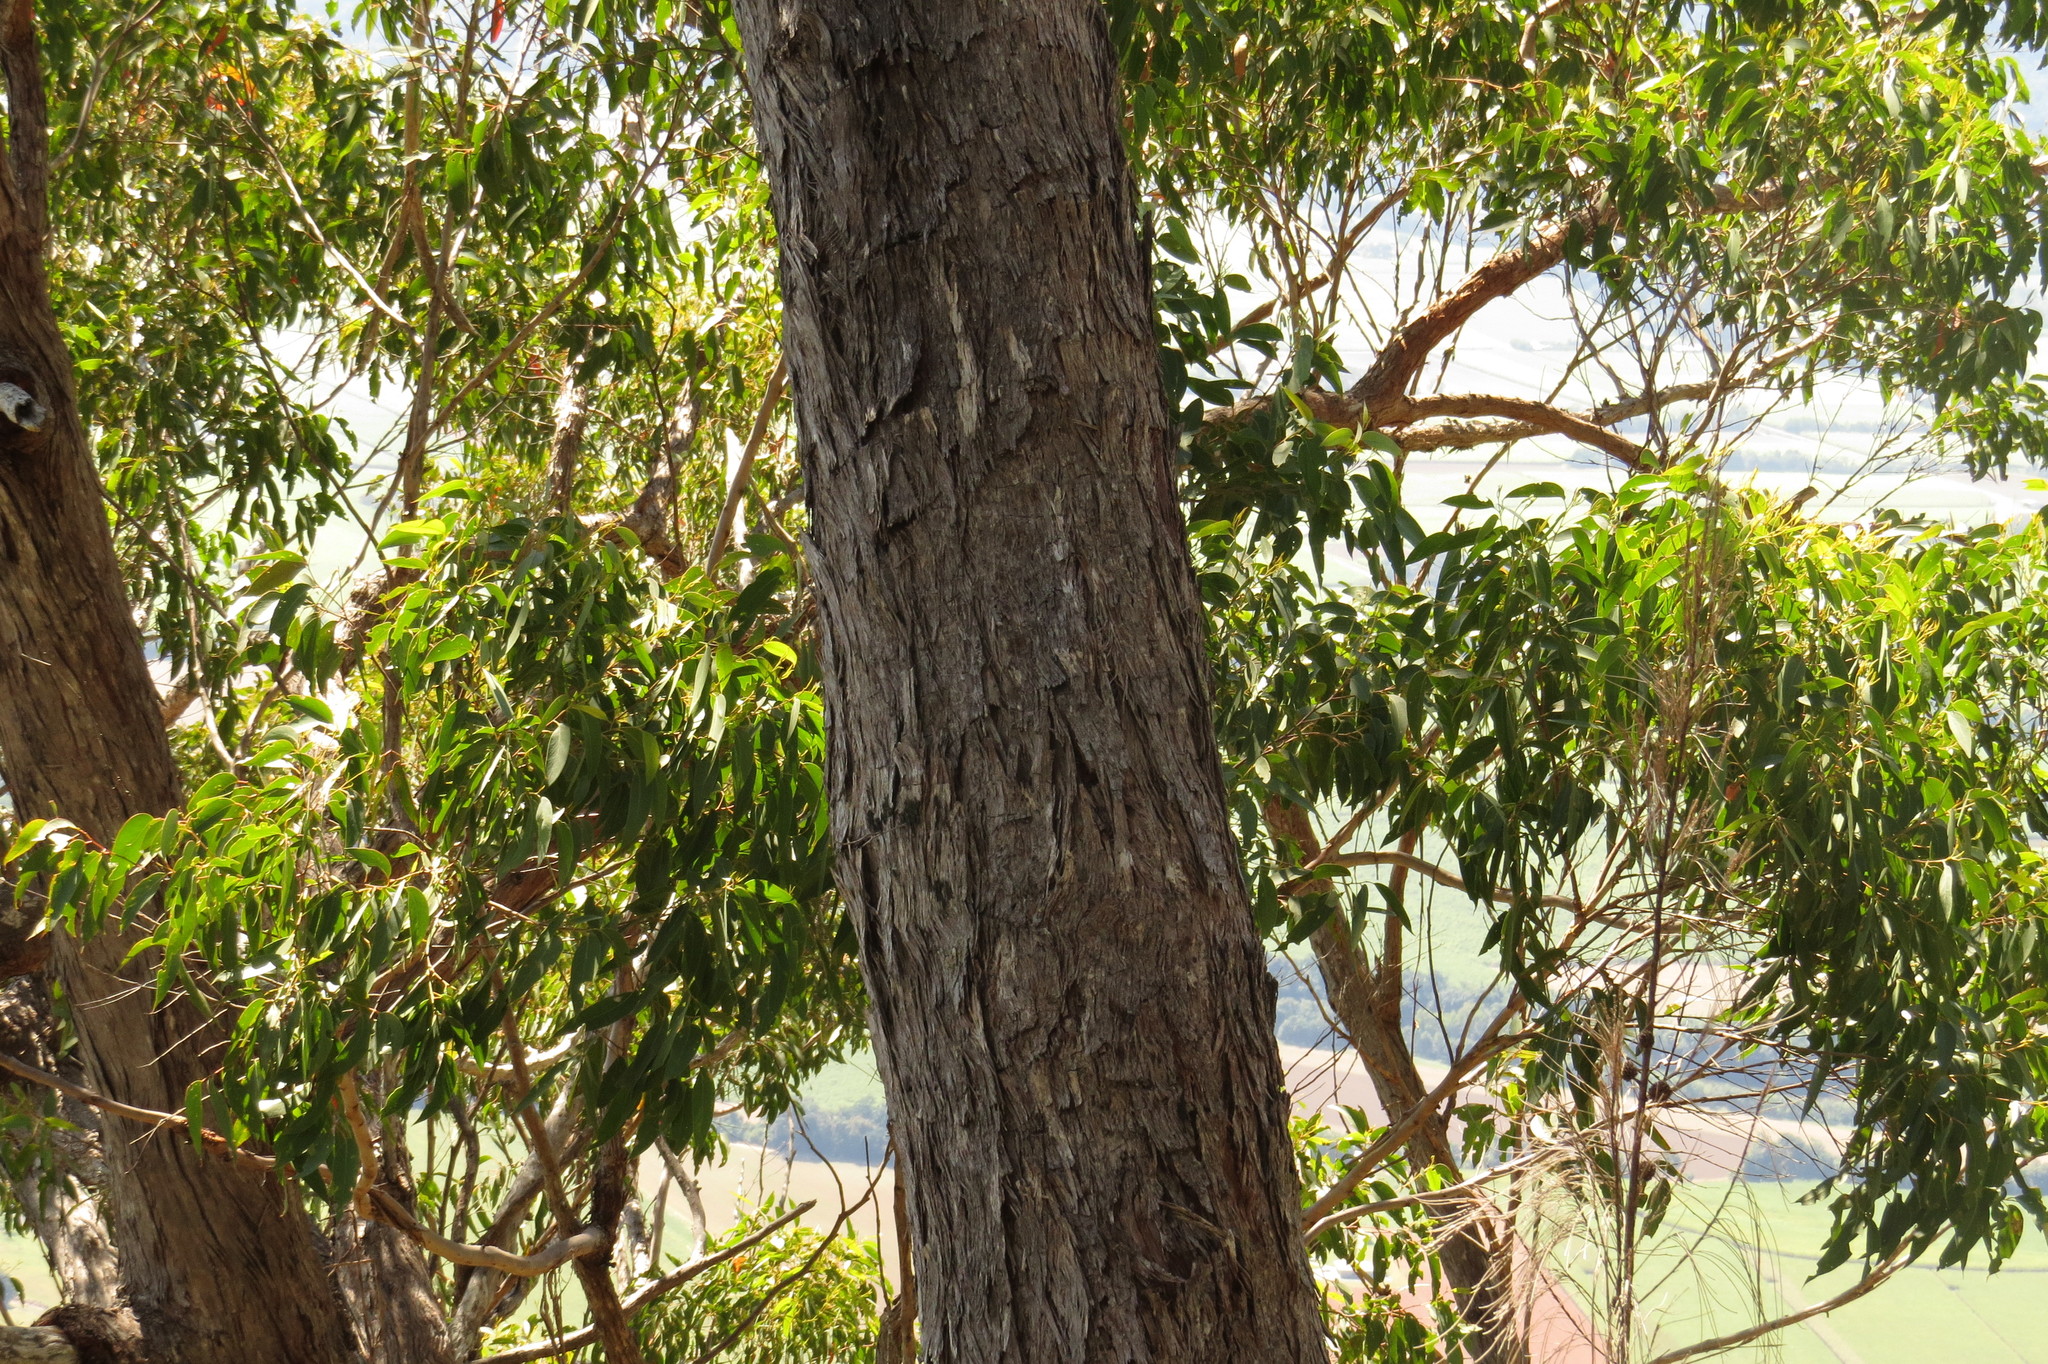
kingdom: Plantae
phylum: Tracheophyta
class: Magnoliopsida
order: Myrtales
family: Myrtaceae
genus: Eucalyptus
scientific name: Eucalyptus tindaliae
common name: Tindales stringybark
